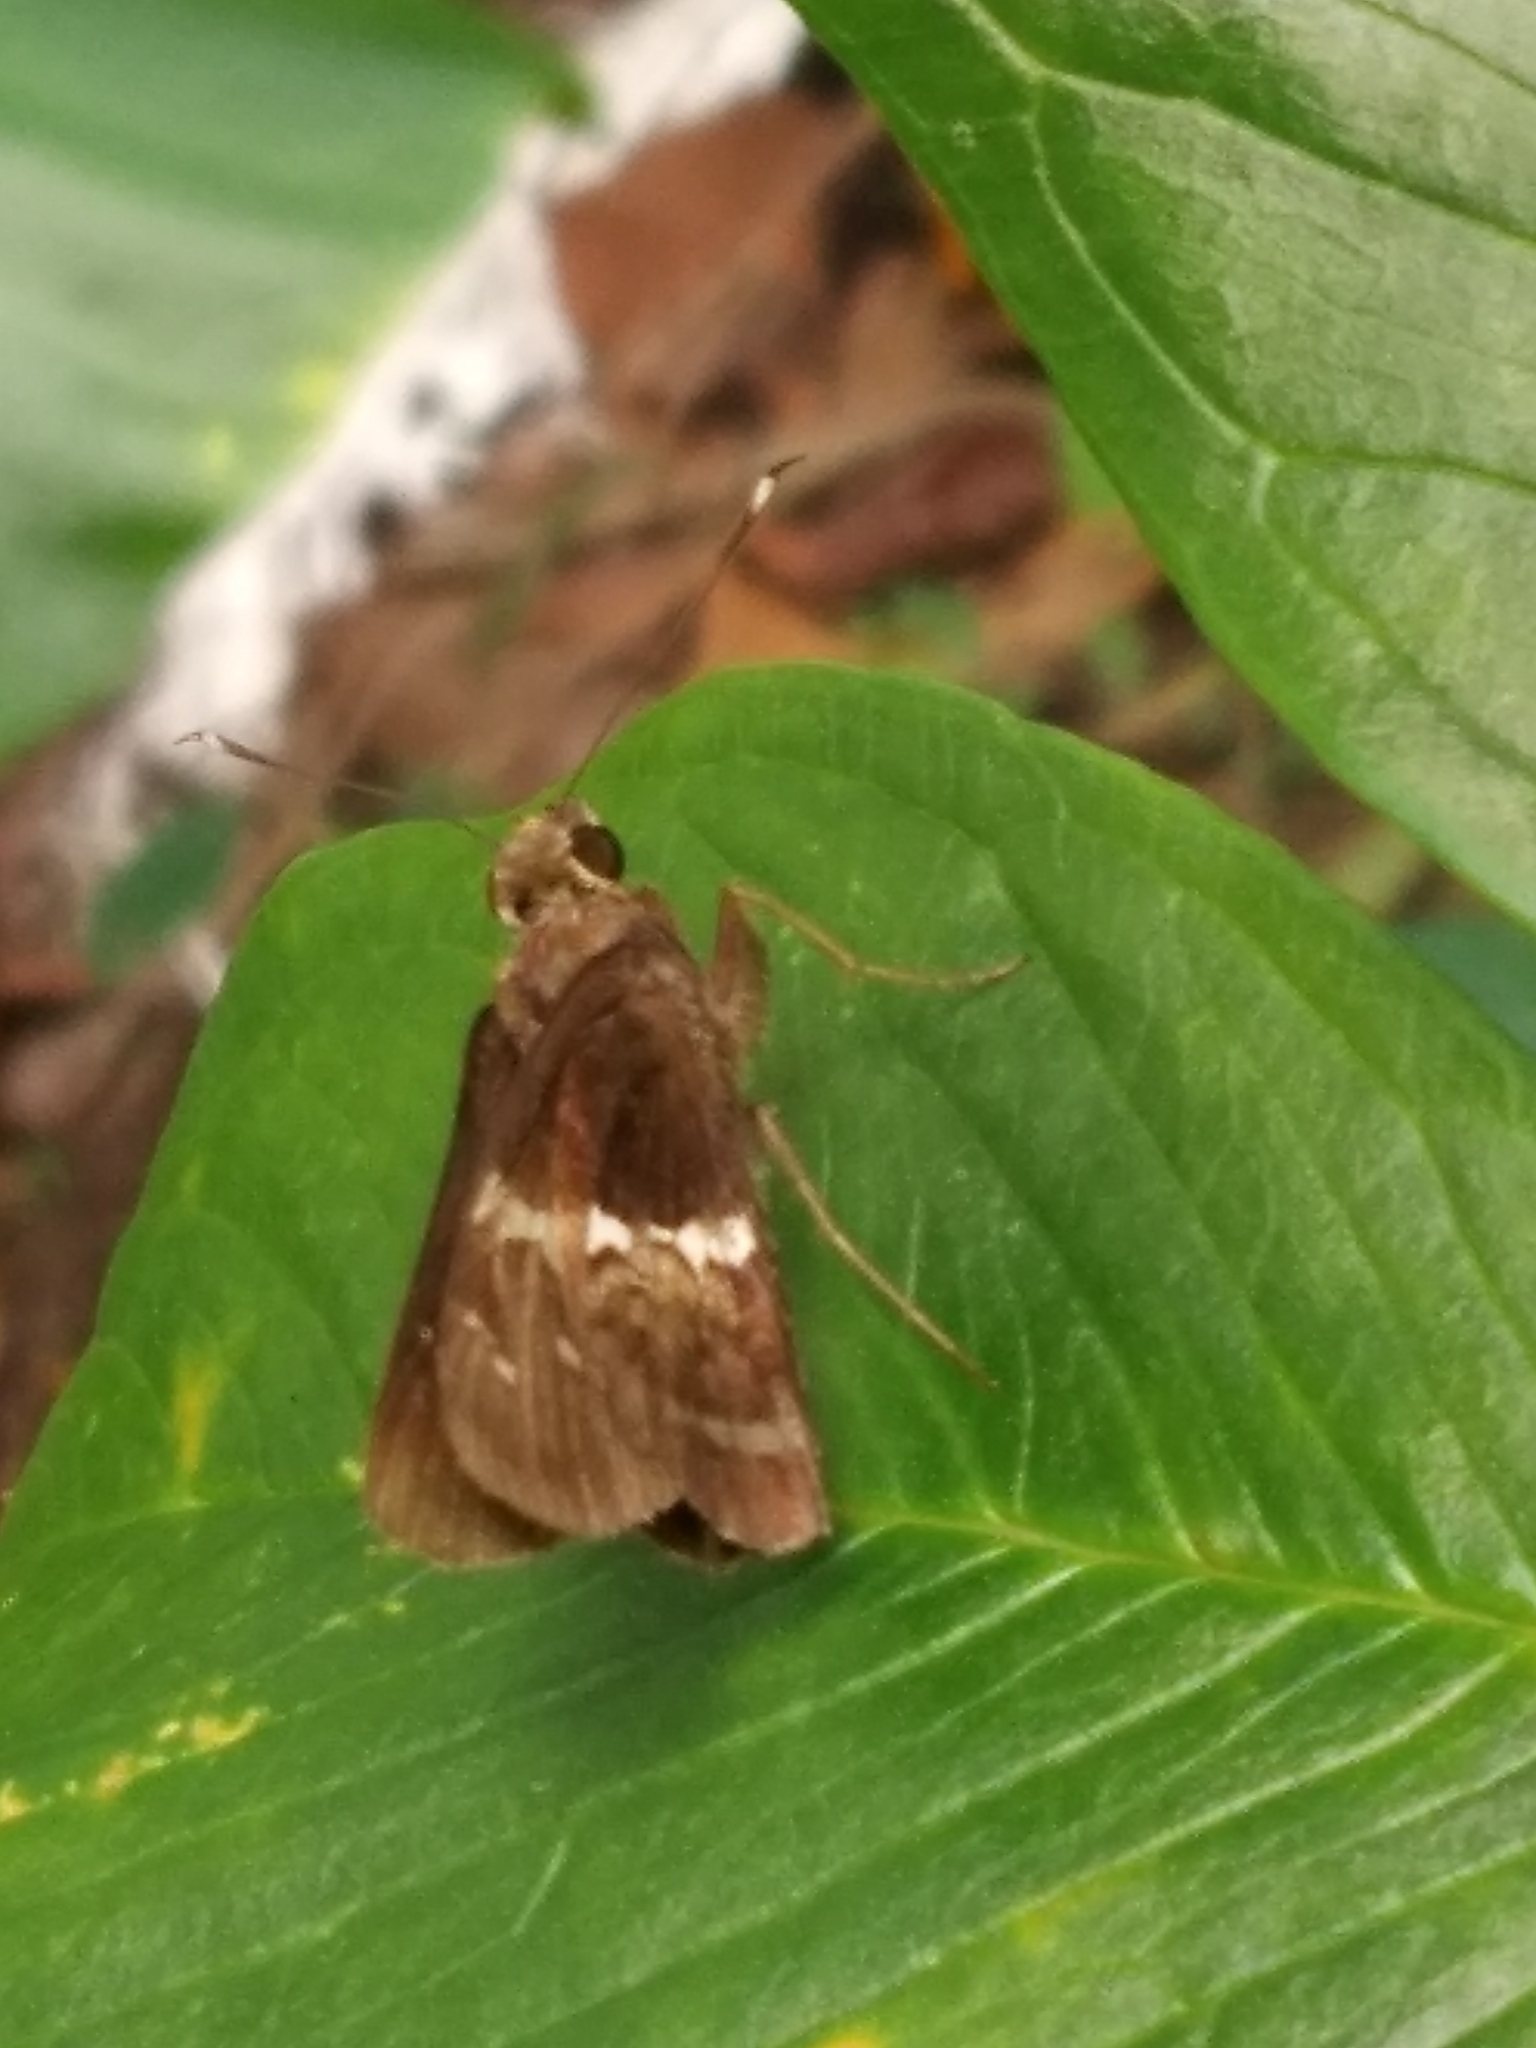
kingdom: Animalia
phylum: Arthropoda
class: Insecta
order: Lepidoptera
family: Hesperiidae
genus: Hyarotis
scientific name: Hyarotis adrastus
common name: Tree flitter
